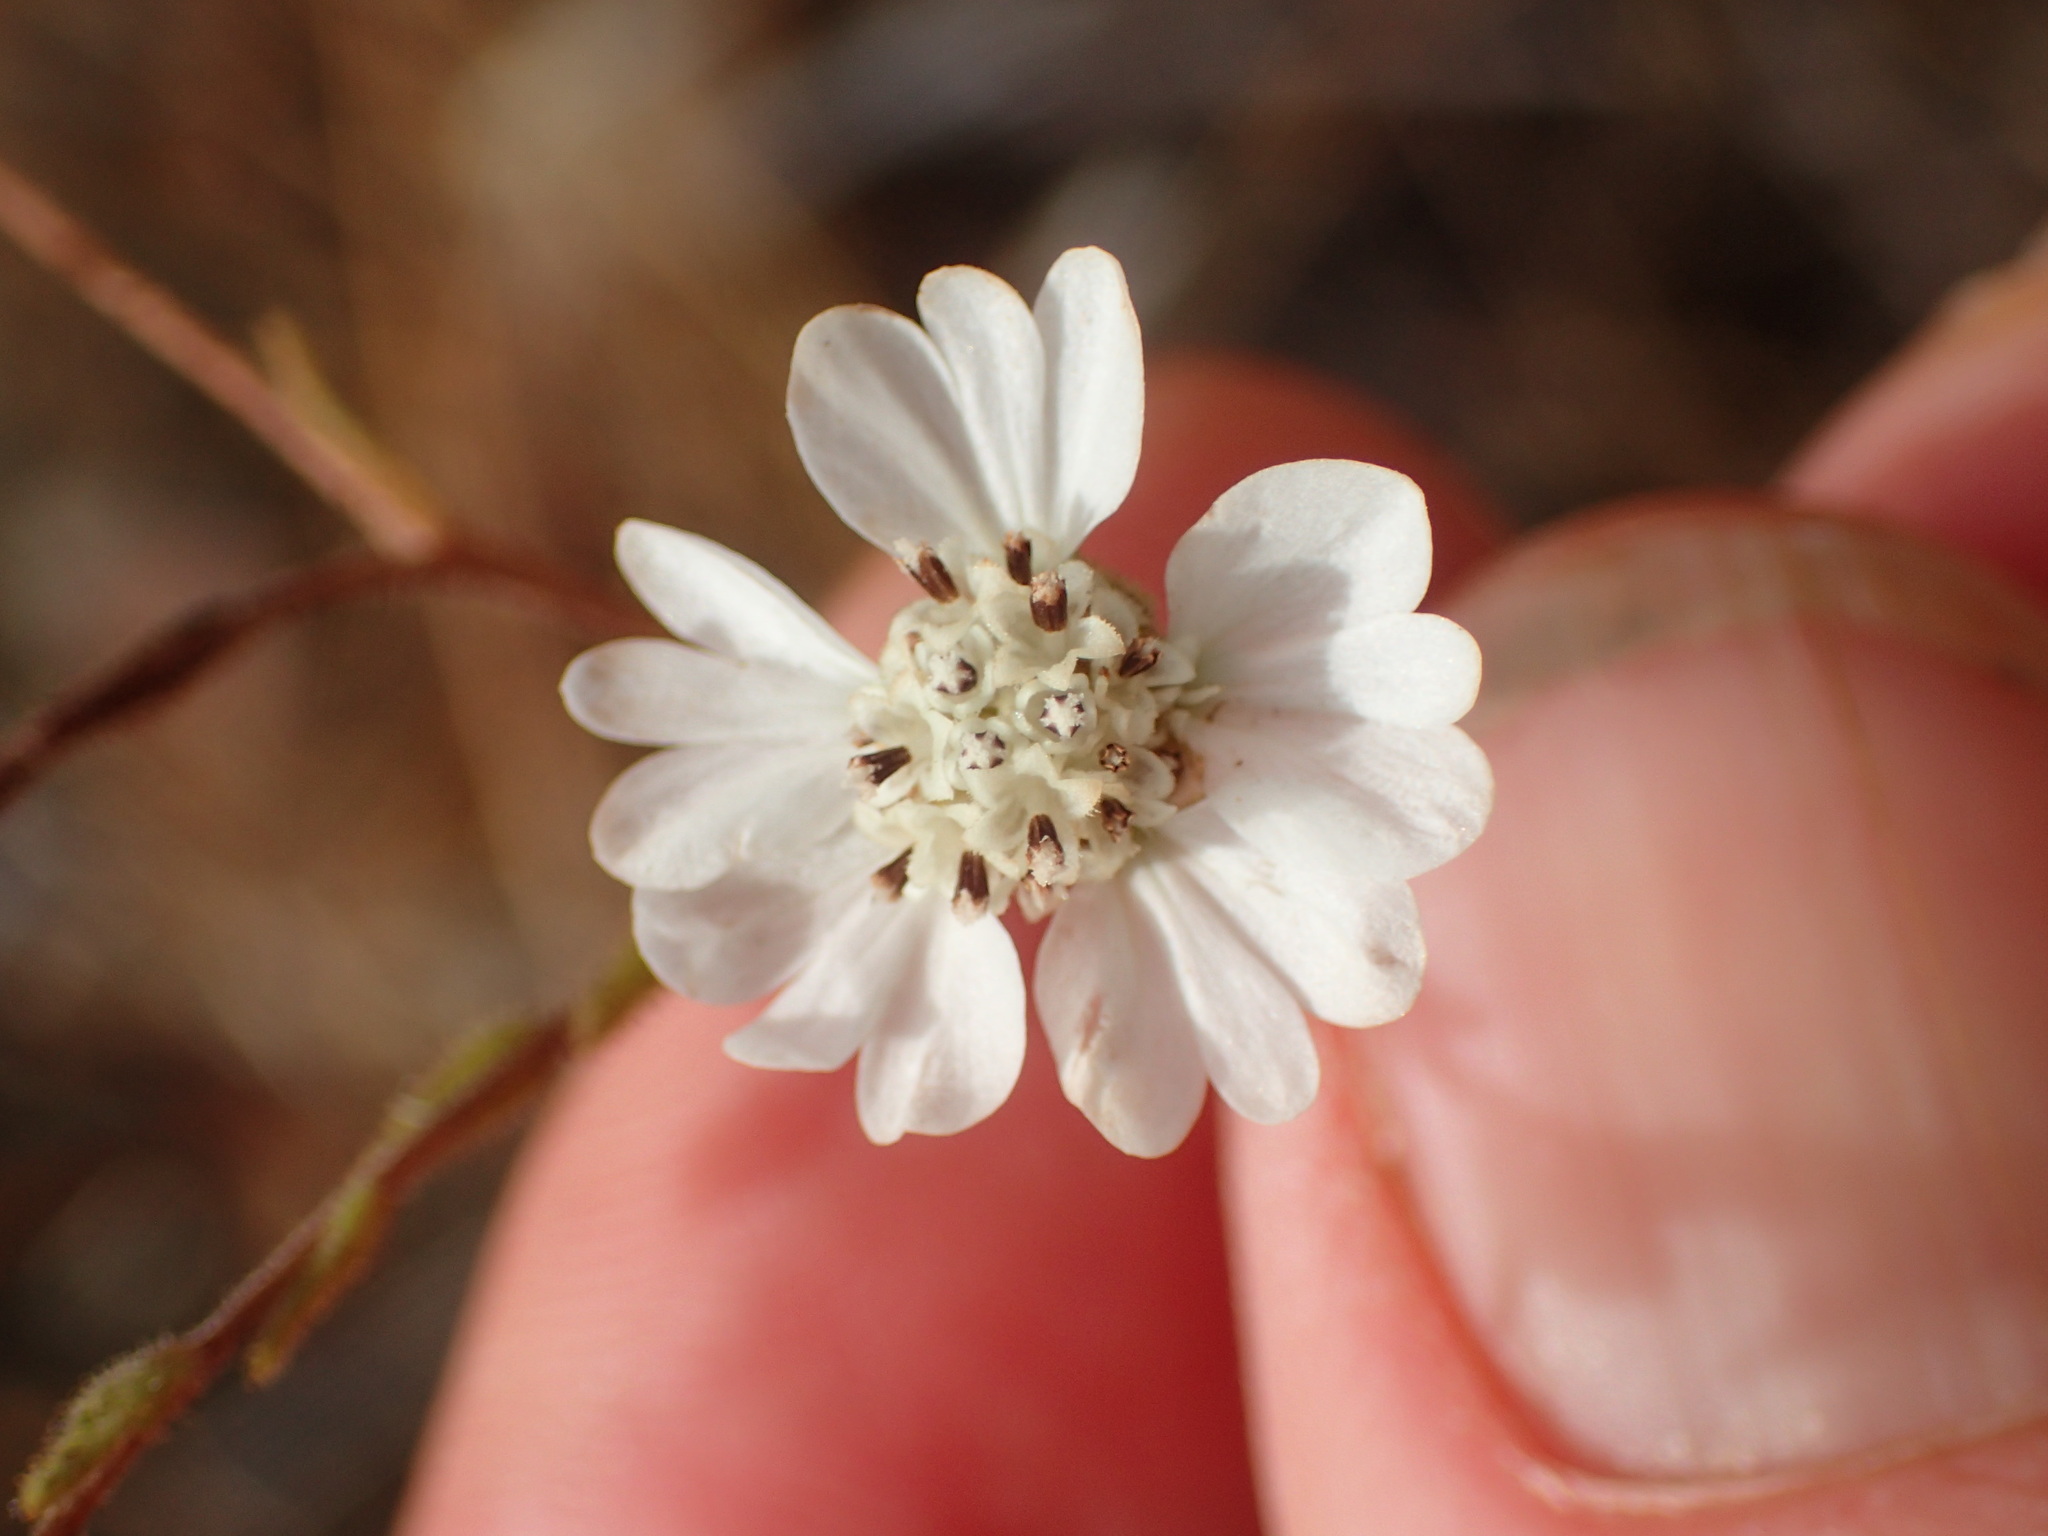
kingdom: Plantae
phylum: Tracheophyta
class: Magnoliopsida
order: Asterales
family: Asteraceae
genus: Hemizonia
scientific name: Hemizonia congesta
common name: Hayfield tarweed
